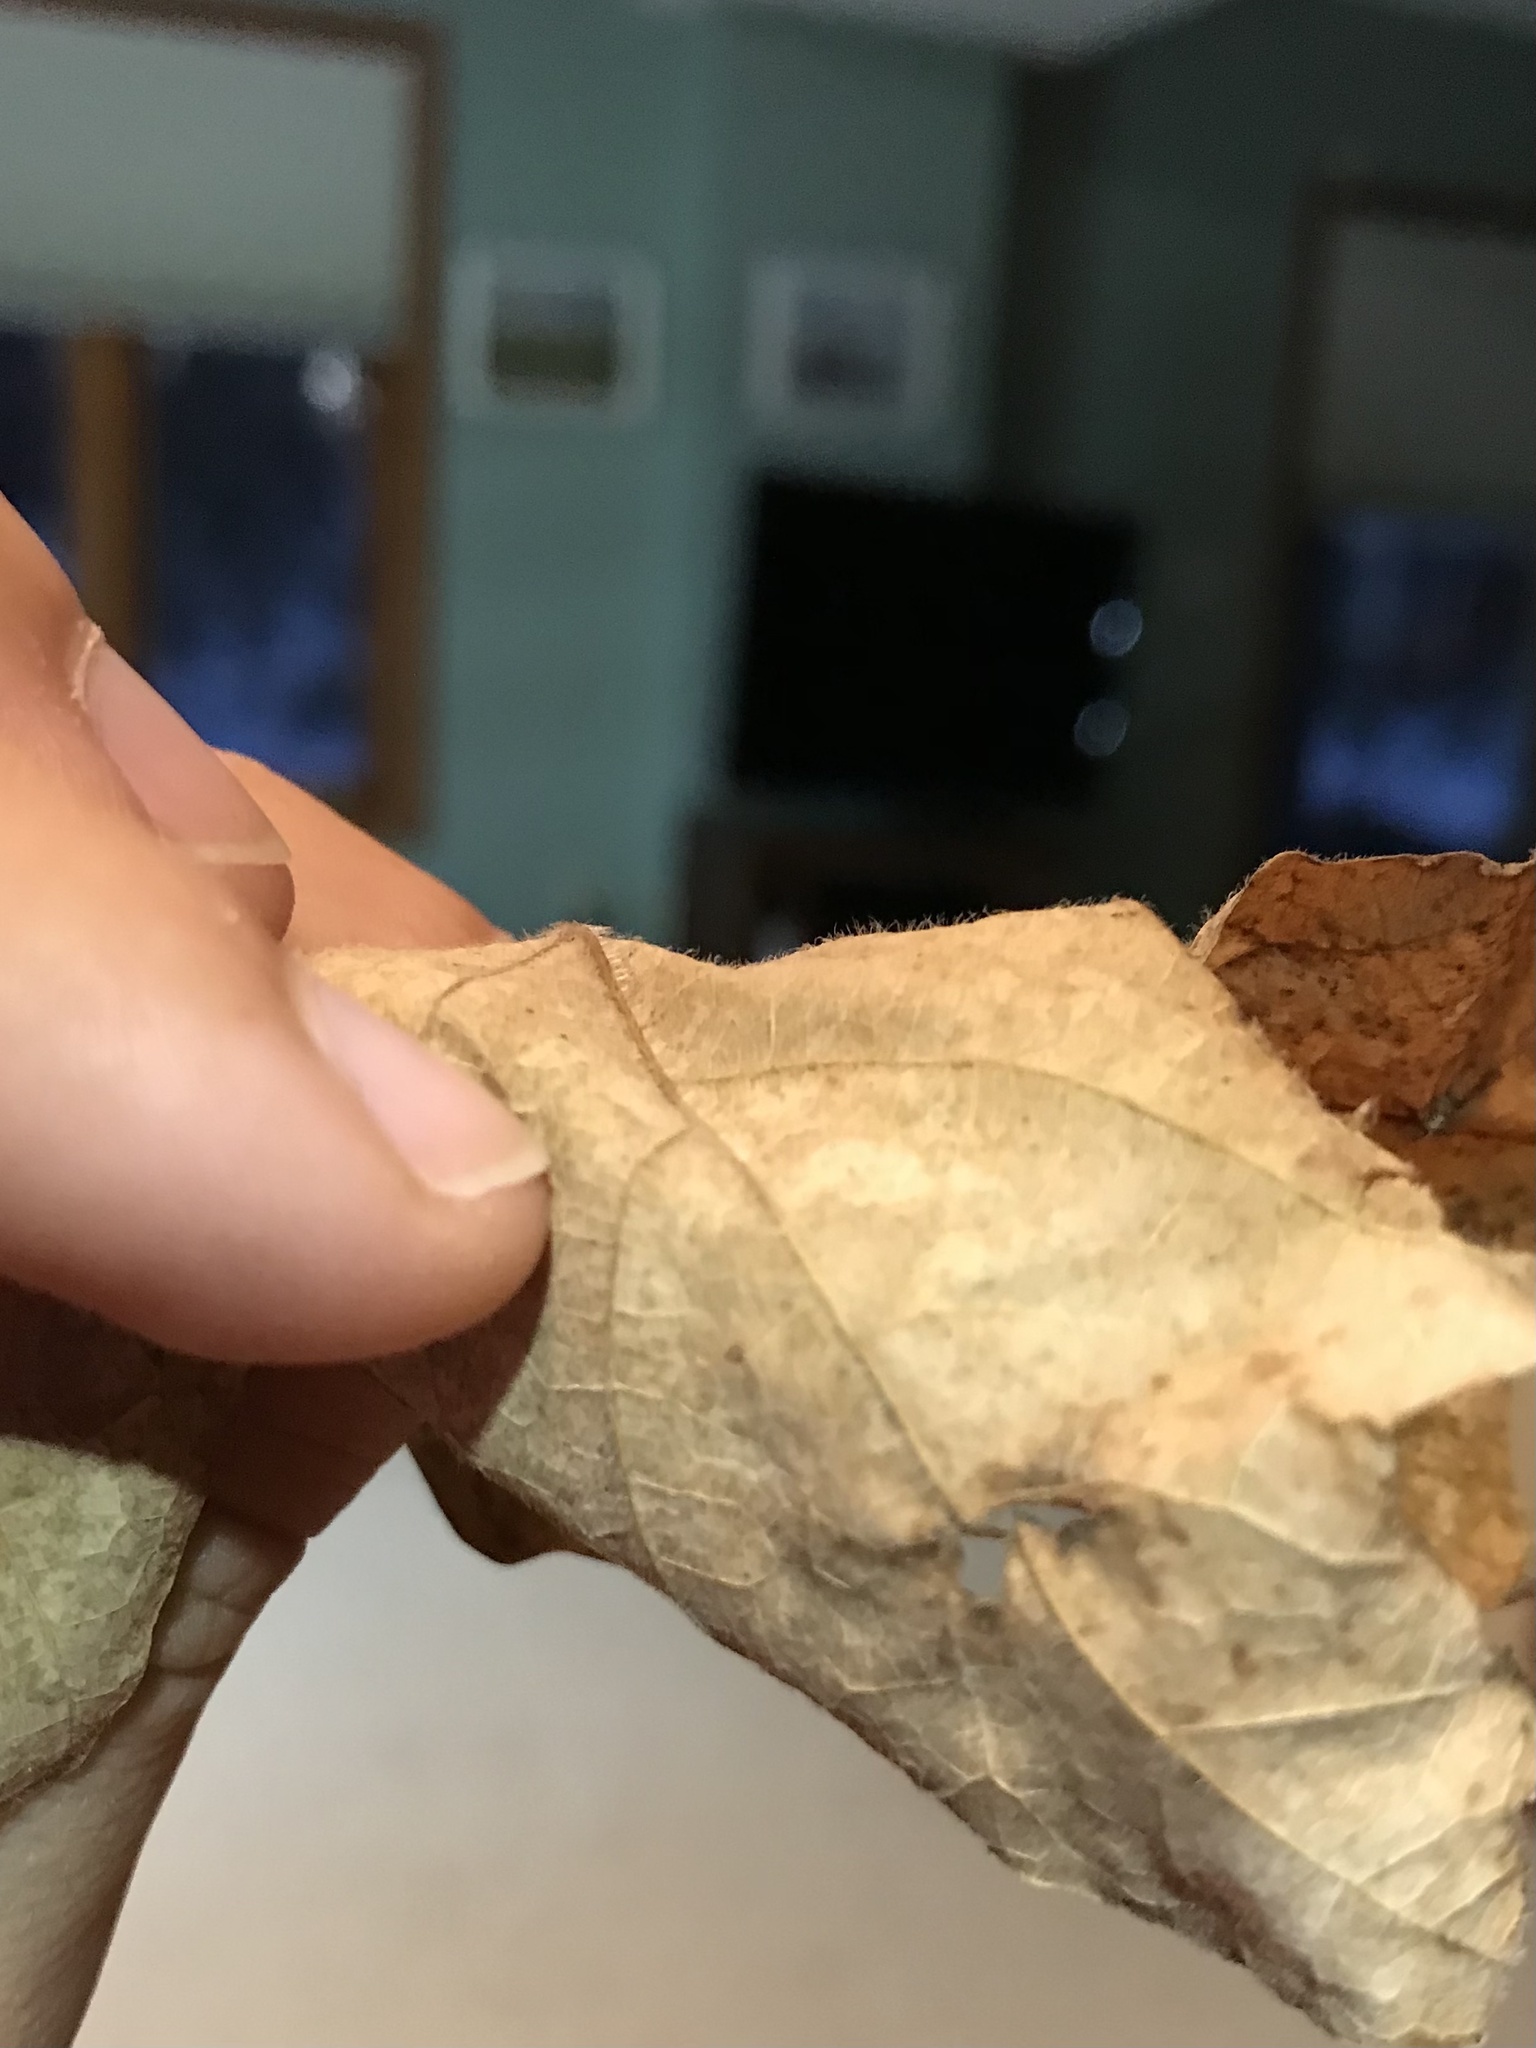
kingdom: Plantae
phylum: Tracheophyta
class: Magnoliopsida
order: Sapindales
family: Sapindaceae
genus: Acer
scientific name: Acer nigrum
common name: Black maple
